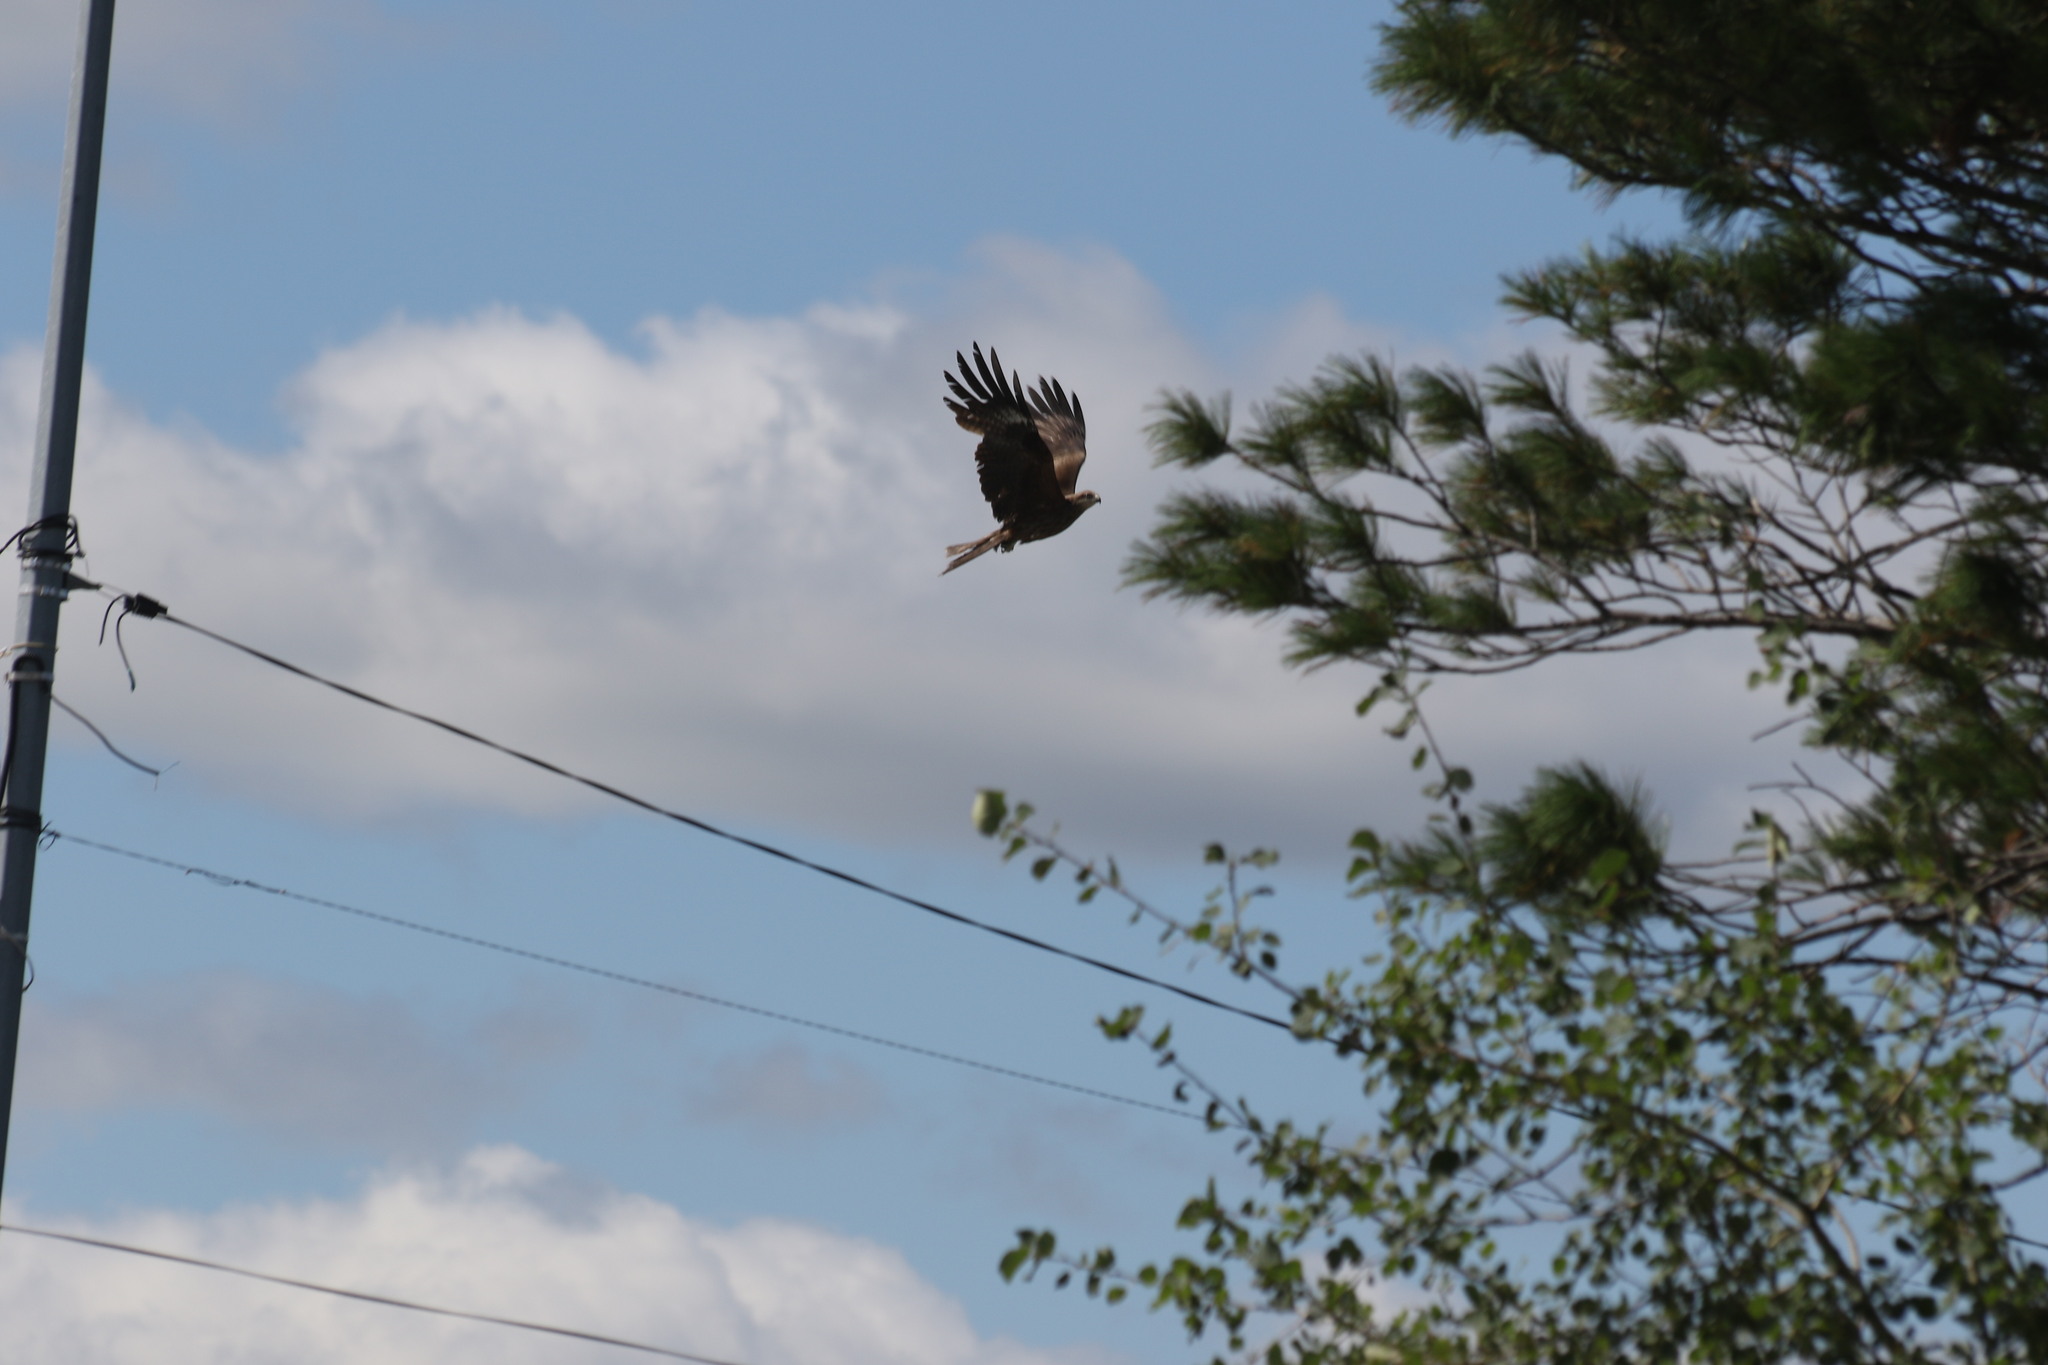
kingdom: Animalia
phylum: Chordata
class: Aves
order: Accipitriformes
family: Accipitridae
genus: Milvus
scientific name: Milvus migrans
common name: Black kite
